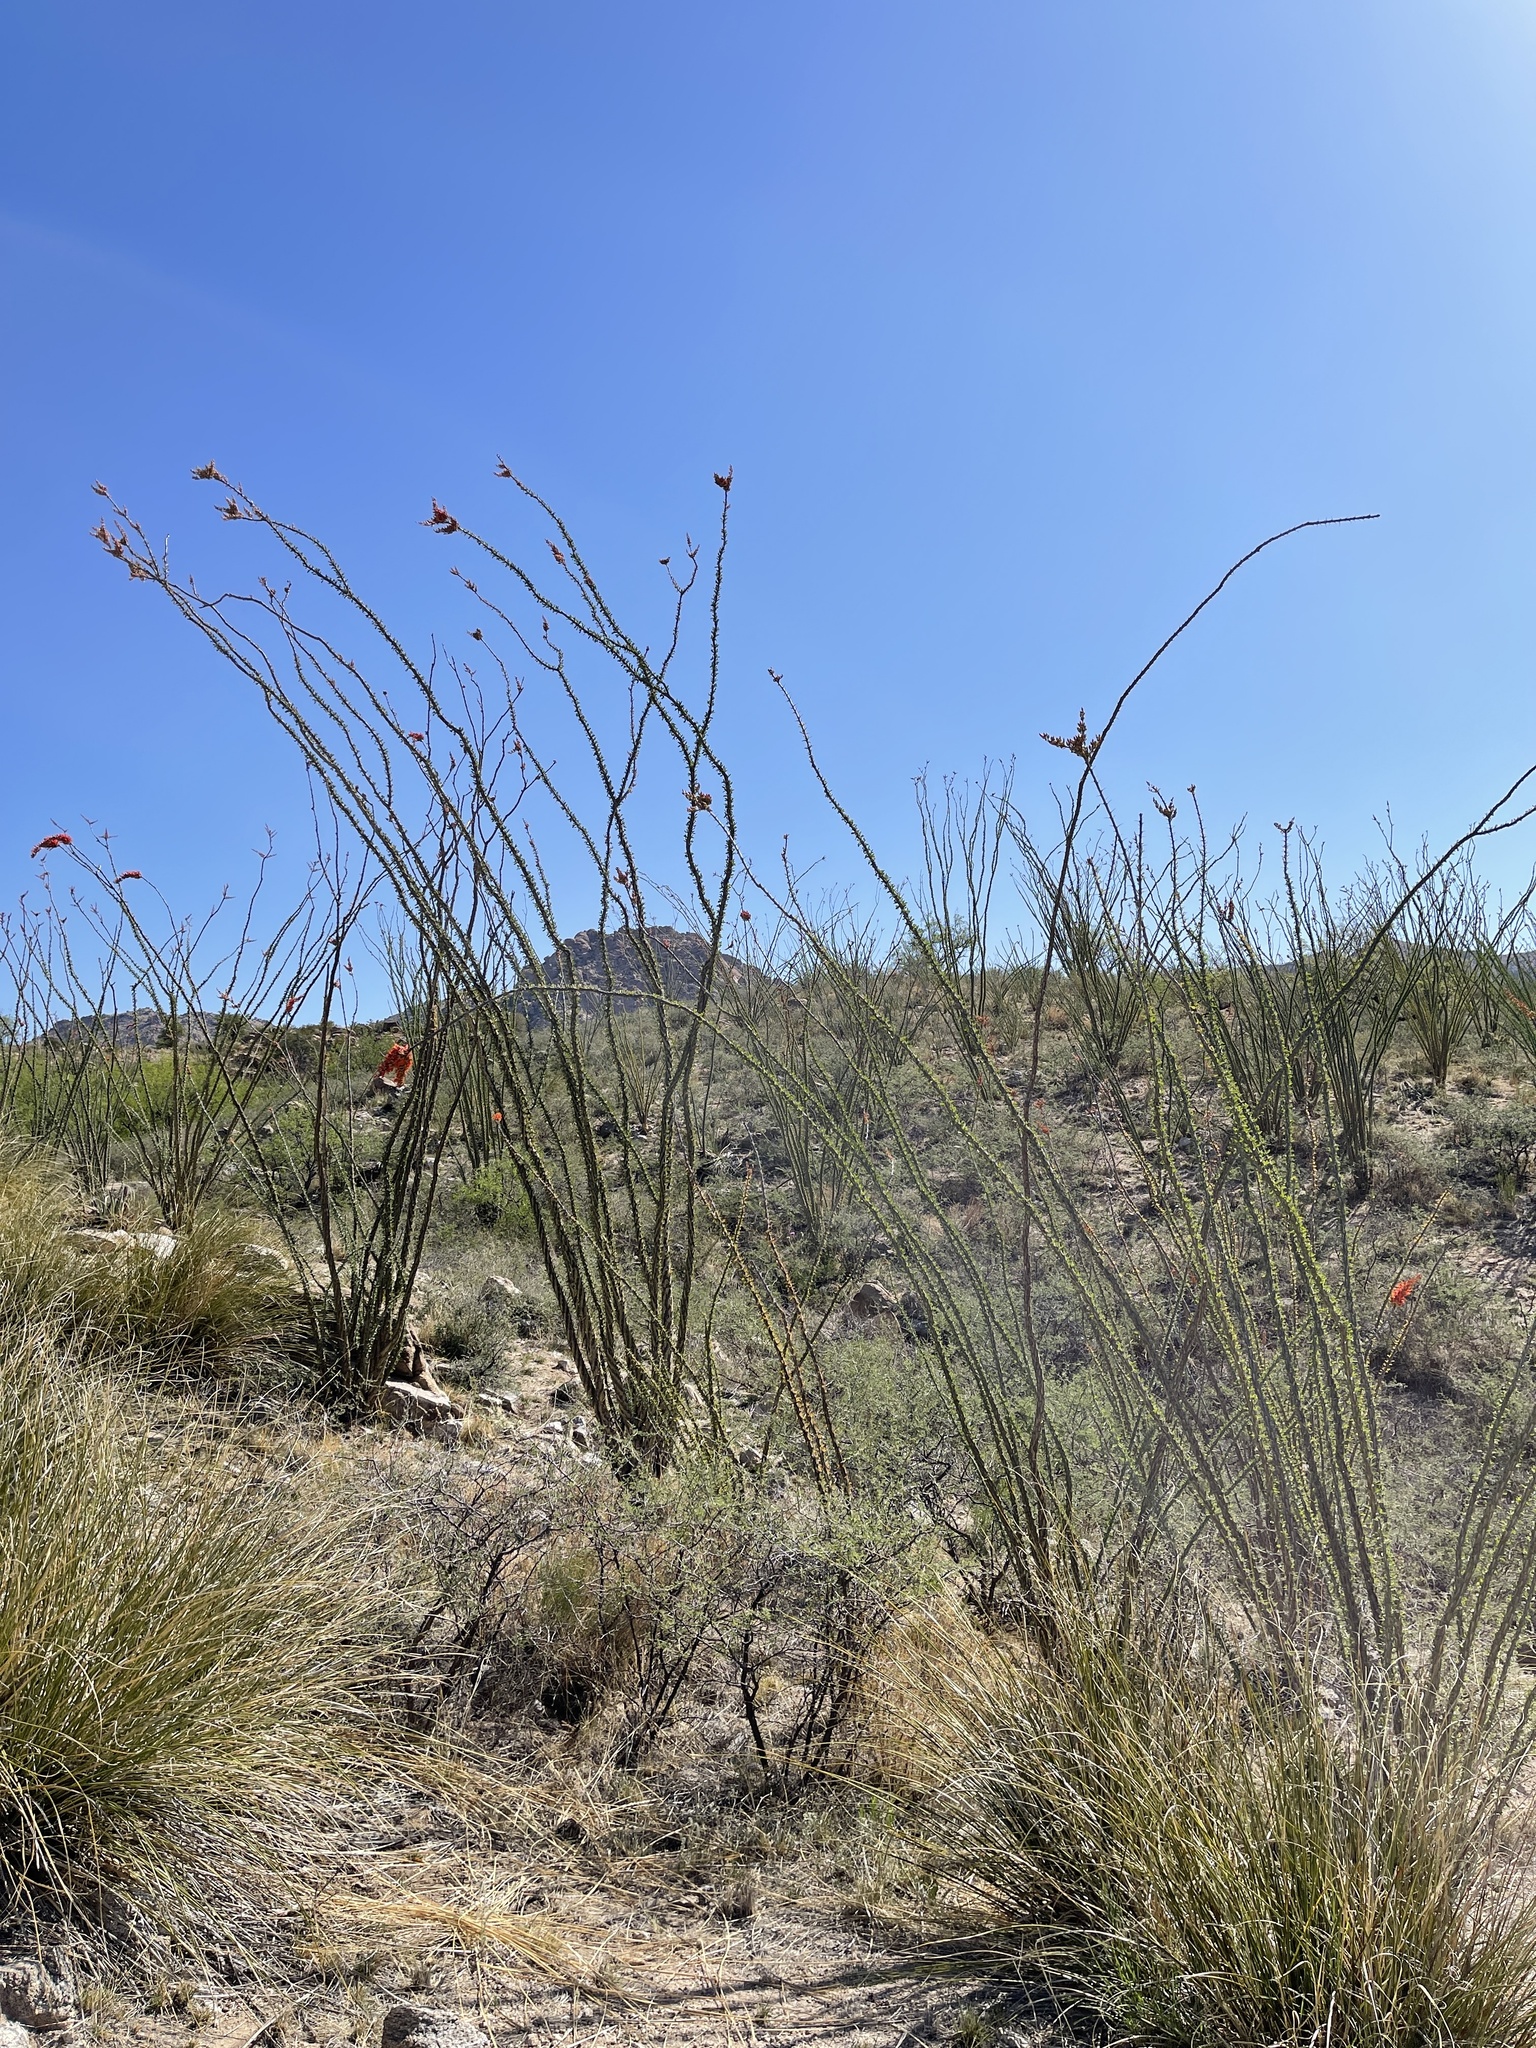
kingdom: Plantae
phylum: Tracheophyta
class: Magnoliopsida
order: Ericales
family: Fouquieriaceae
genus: Fouquieria
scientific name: Fouquieria splendens
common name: Vine-cactus
